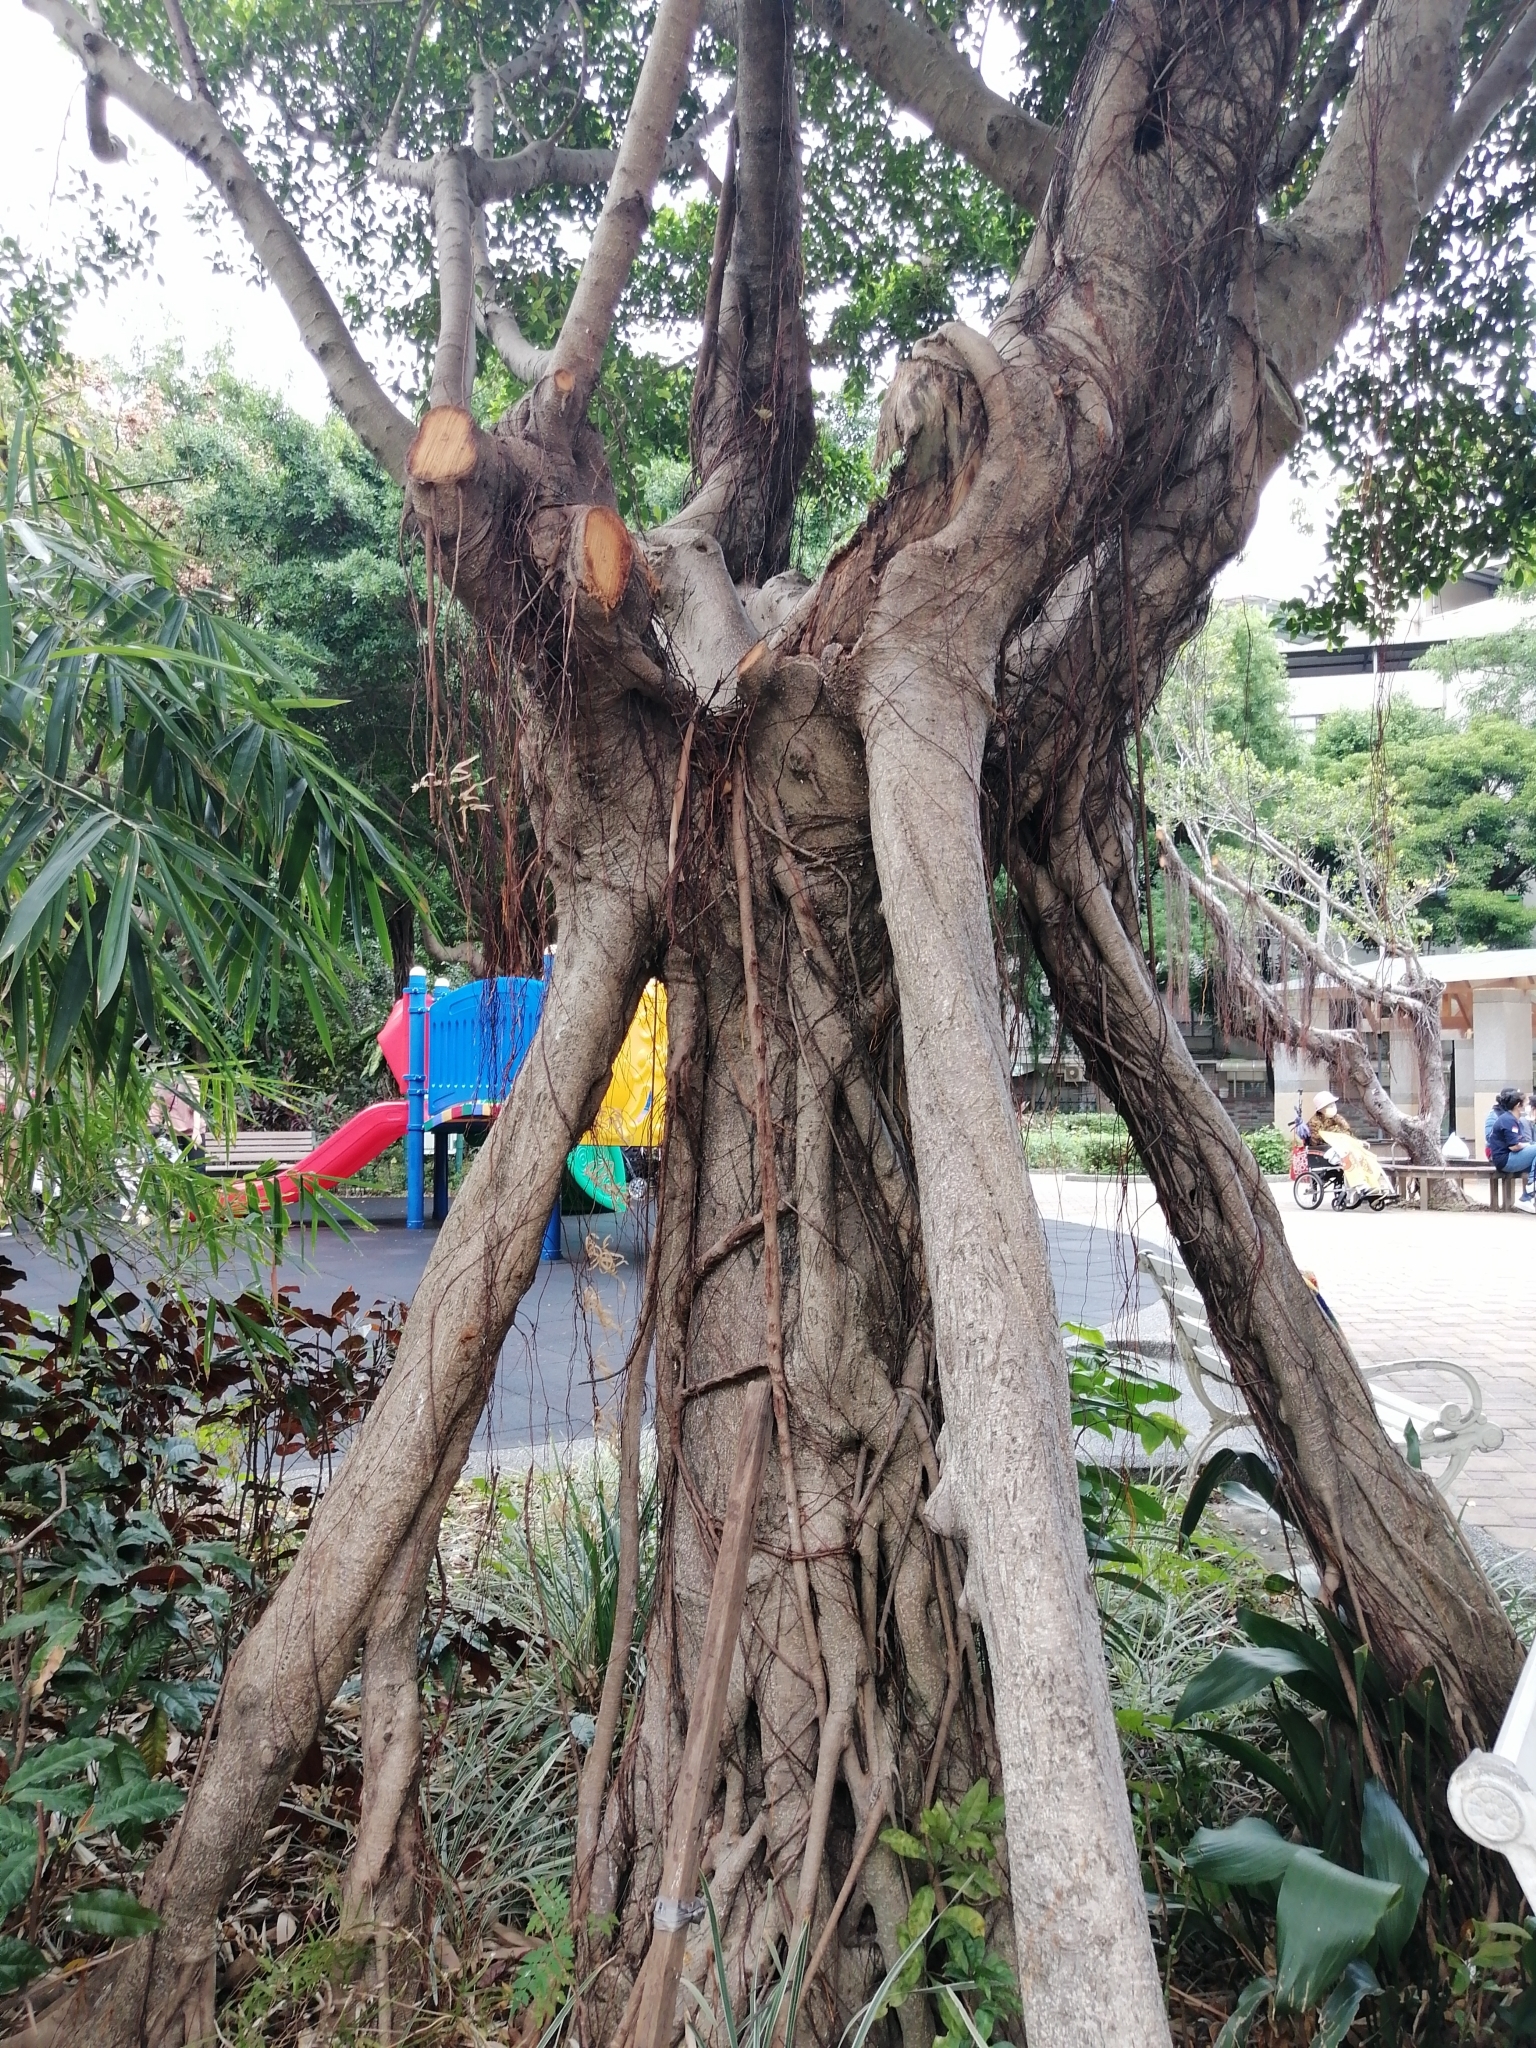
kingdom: Plantae
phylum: Tracheophyta
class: Magnoliopsida
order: Rosales
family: Moraceae
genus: Ficus
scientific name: Ficus microcarpa
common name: Chinese banyan
